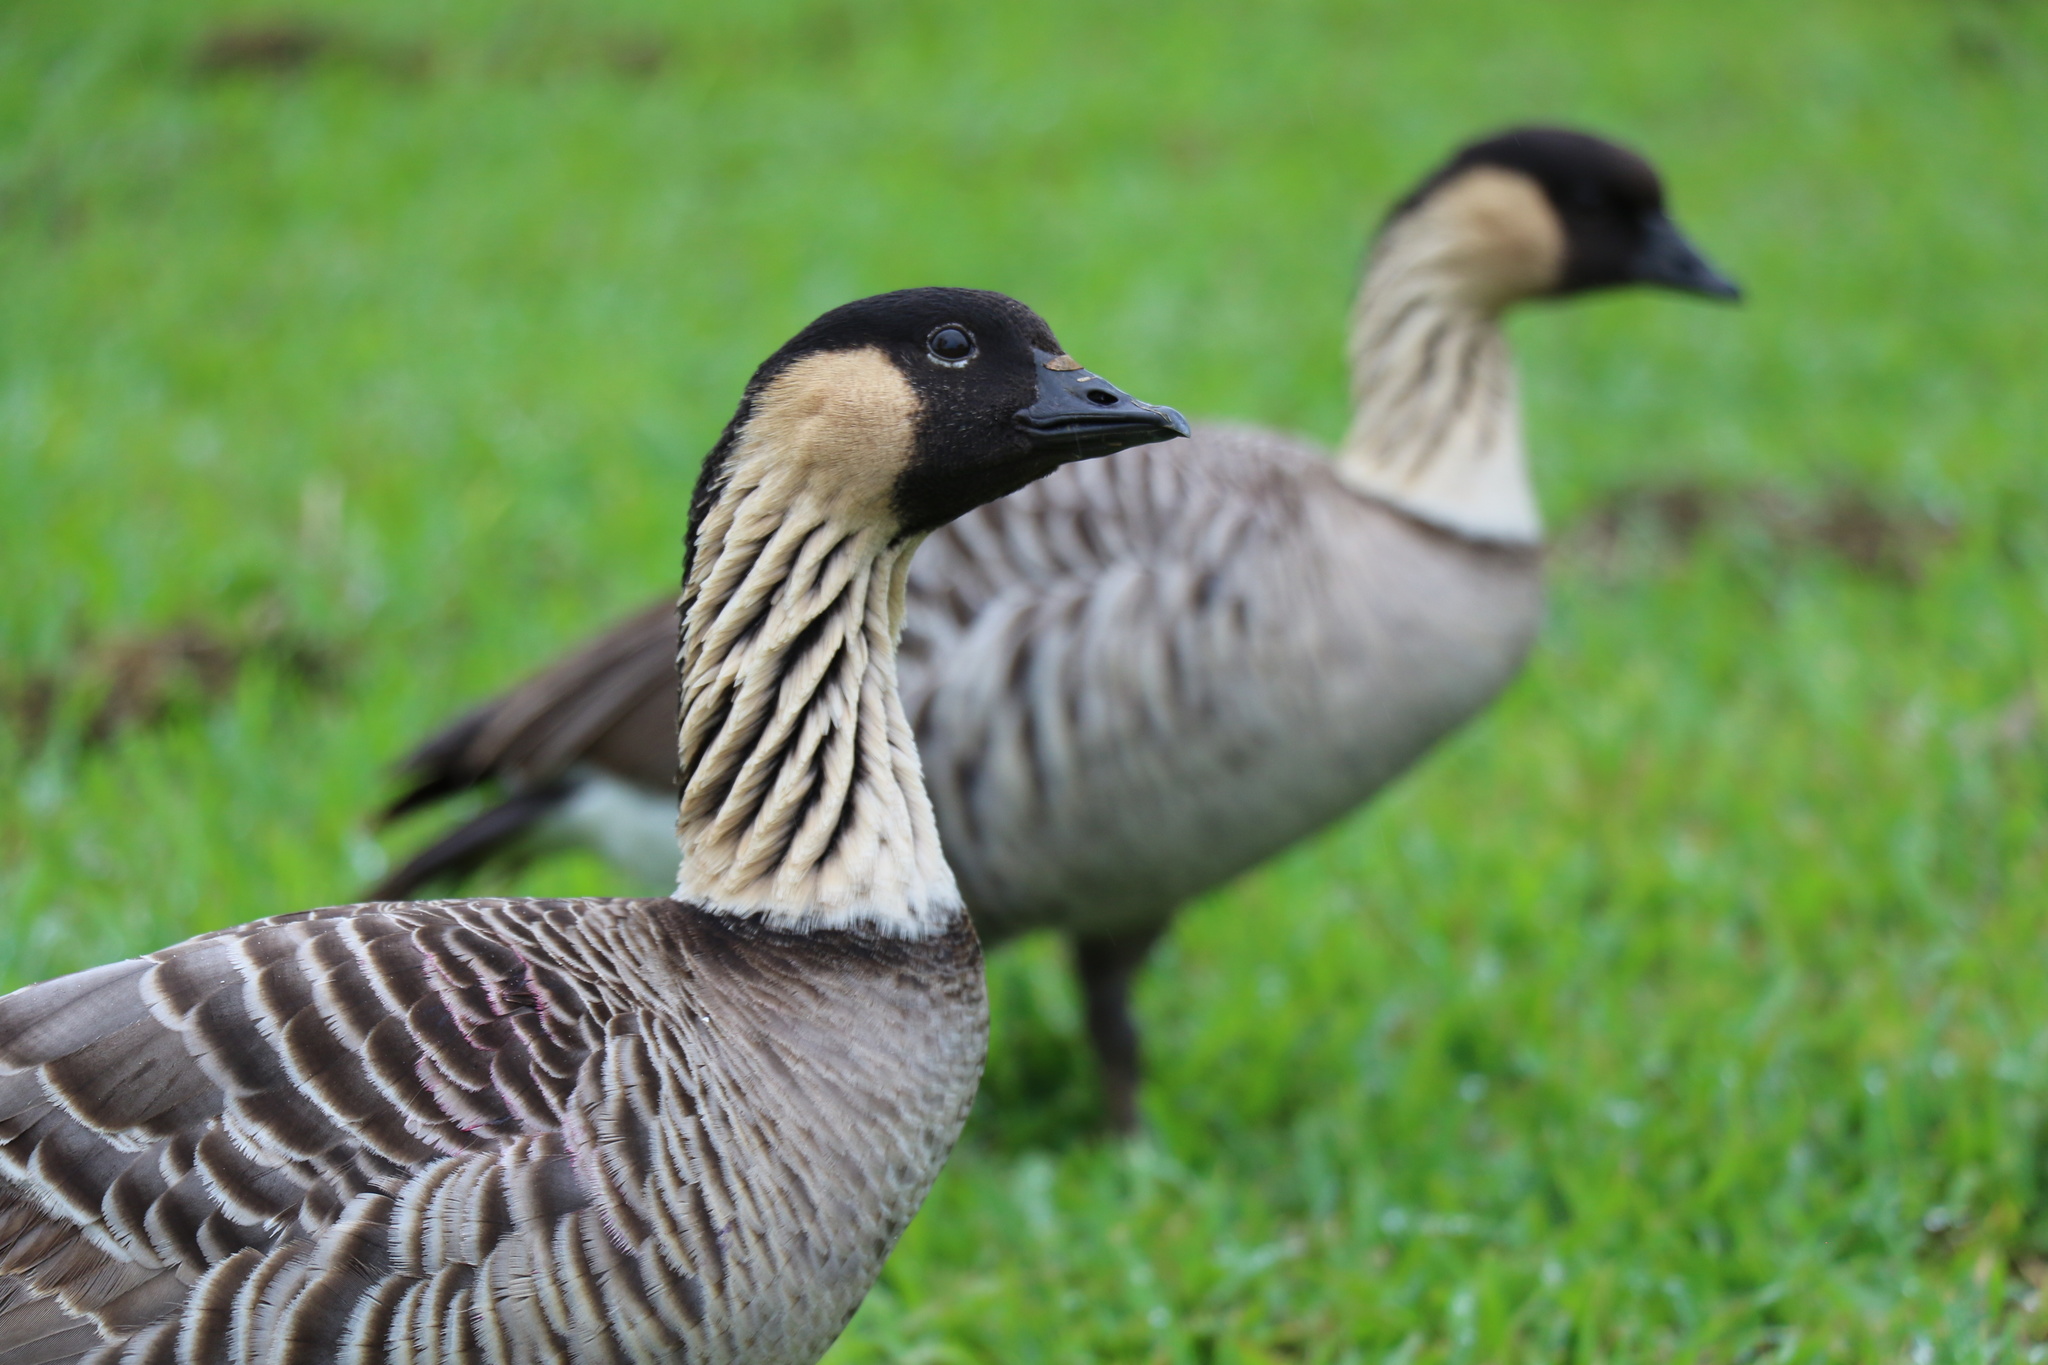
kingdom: Animalia
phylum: Chordata
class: Aves
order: Anseriformes
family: Anatidae
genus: Branta
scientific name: Branta sandvicensis
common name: Nene
